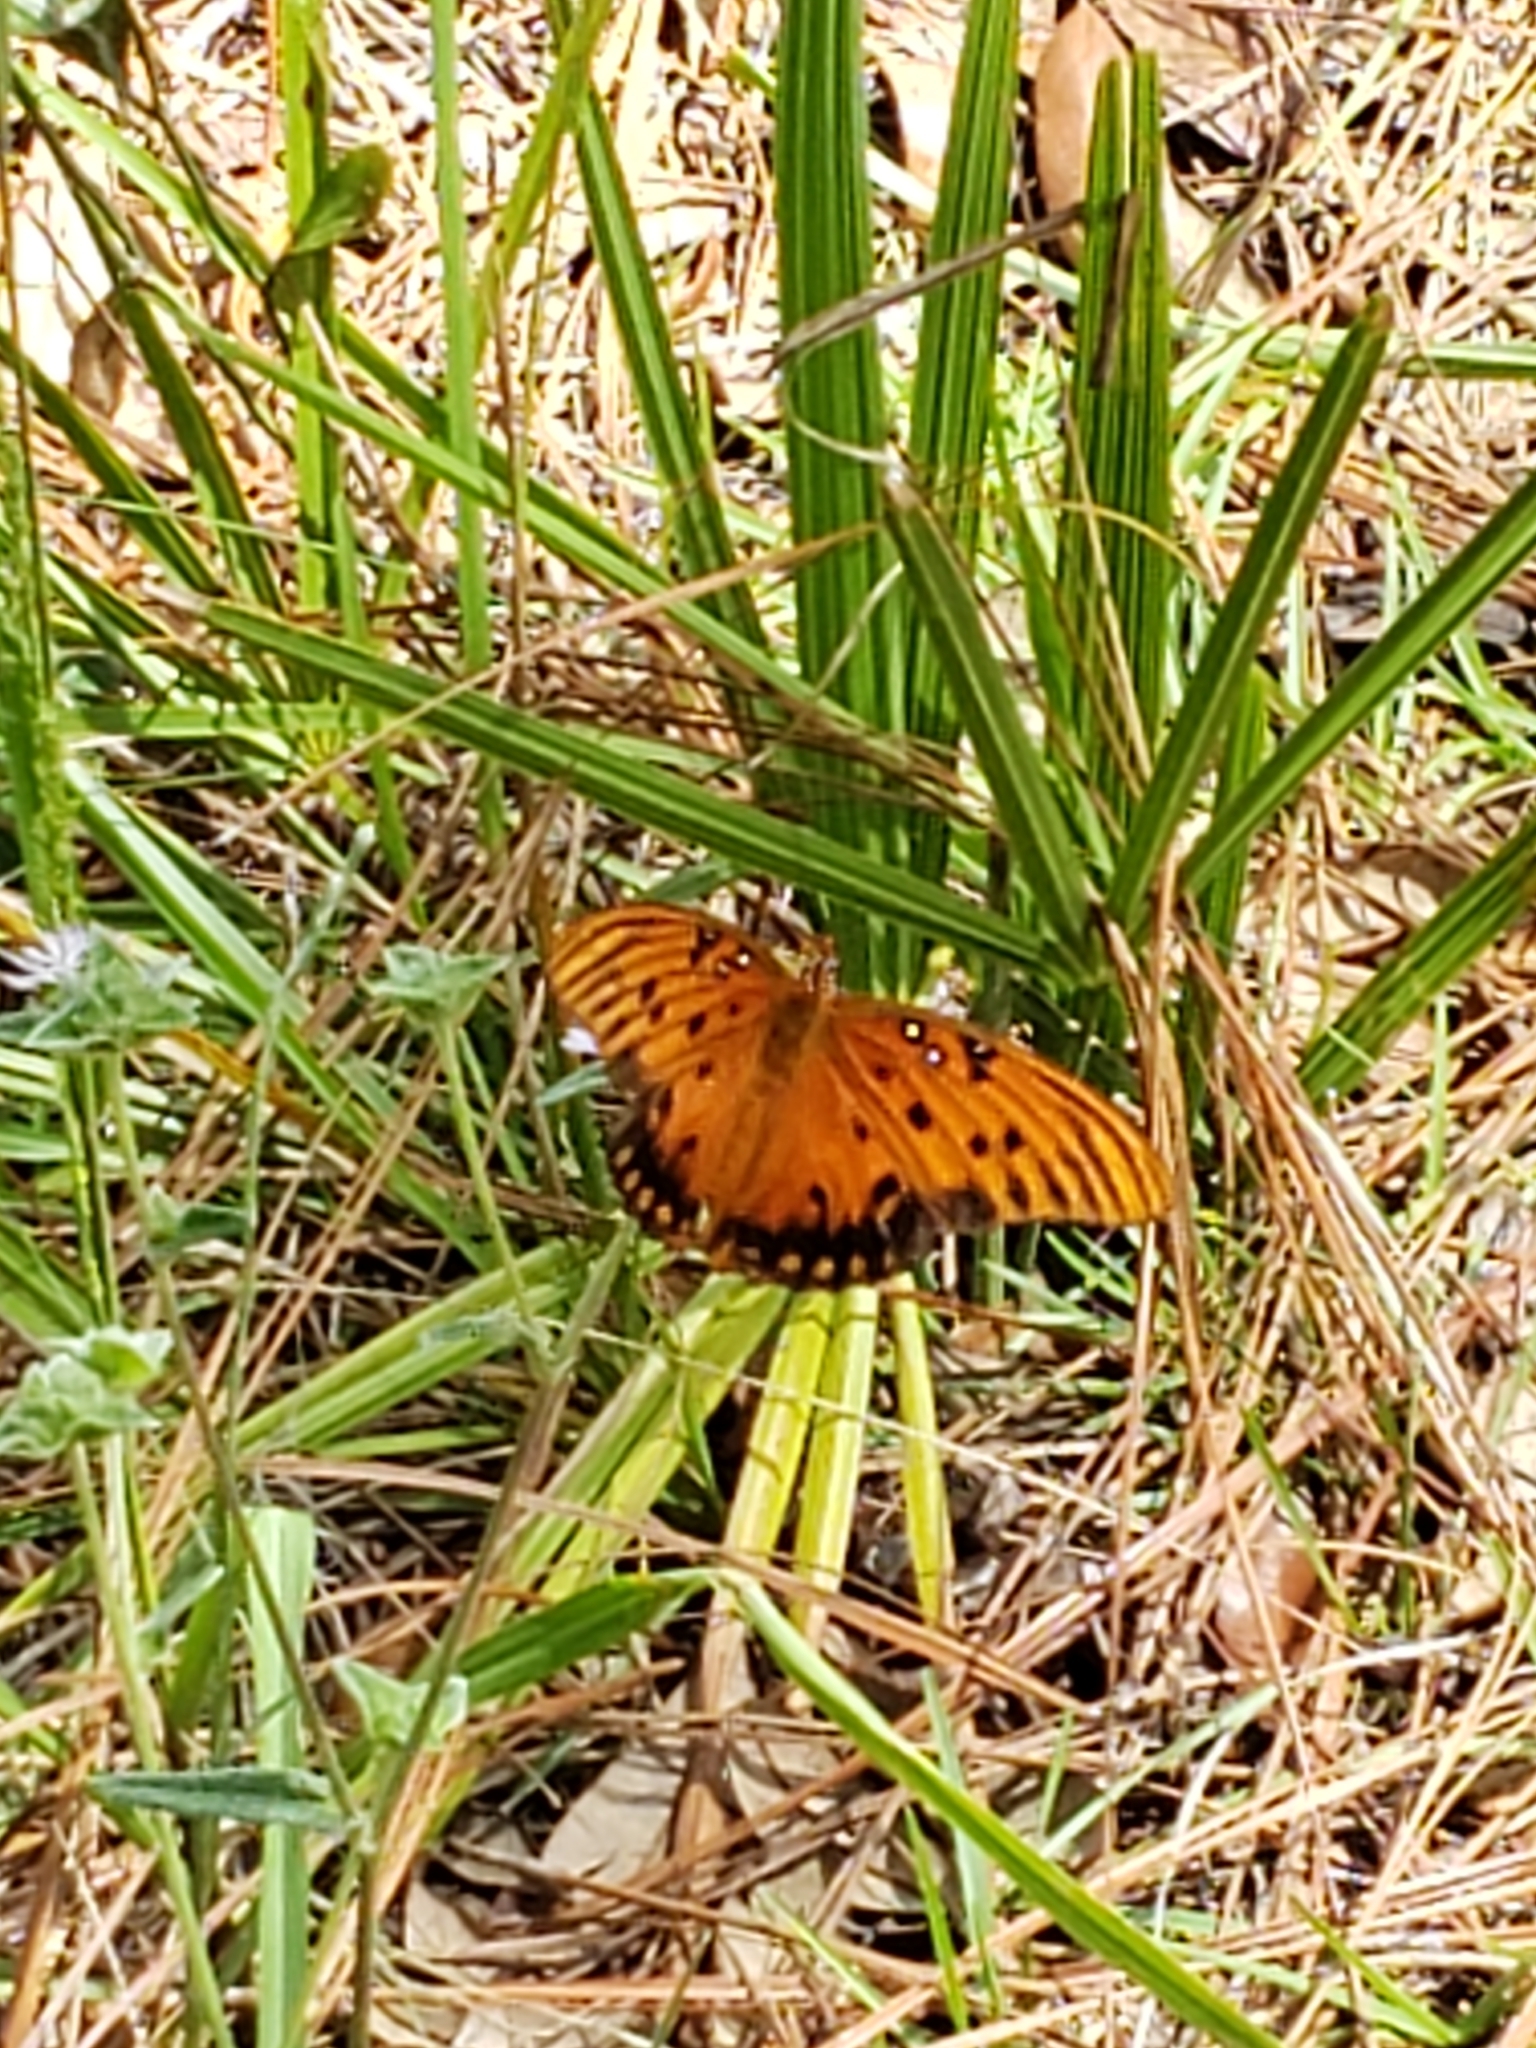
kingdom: Animalia
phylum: Arthropoda
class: Insecta
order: Lepidoptera
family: Nymphalidae
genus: Dione
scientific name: Dione vanillae
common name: Gulf fritillary
